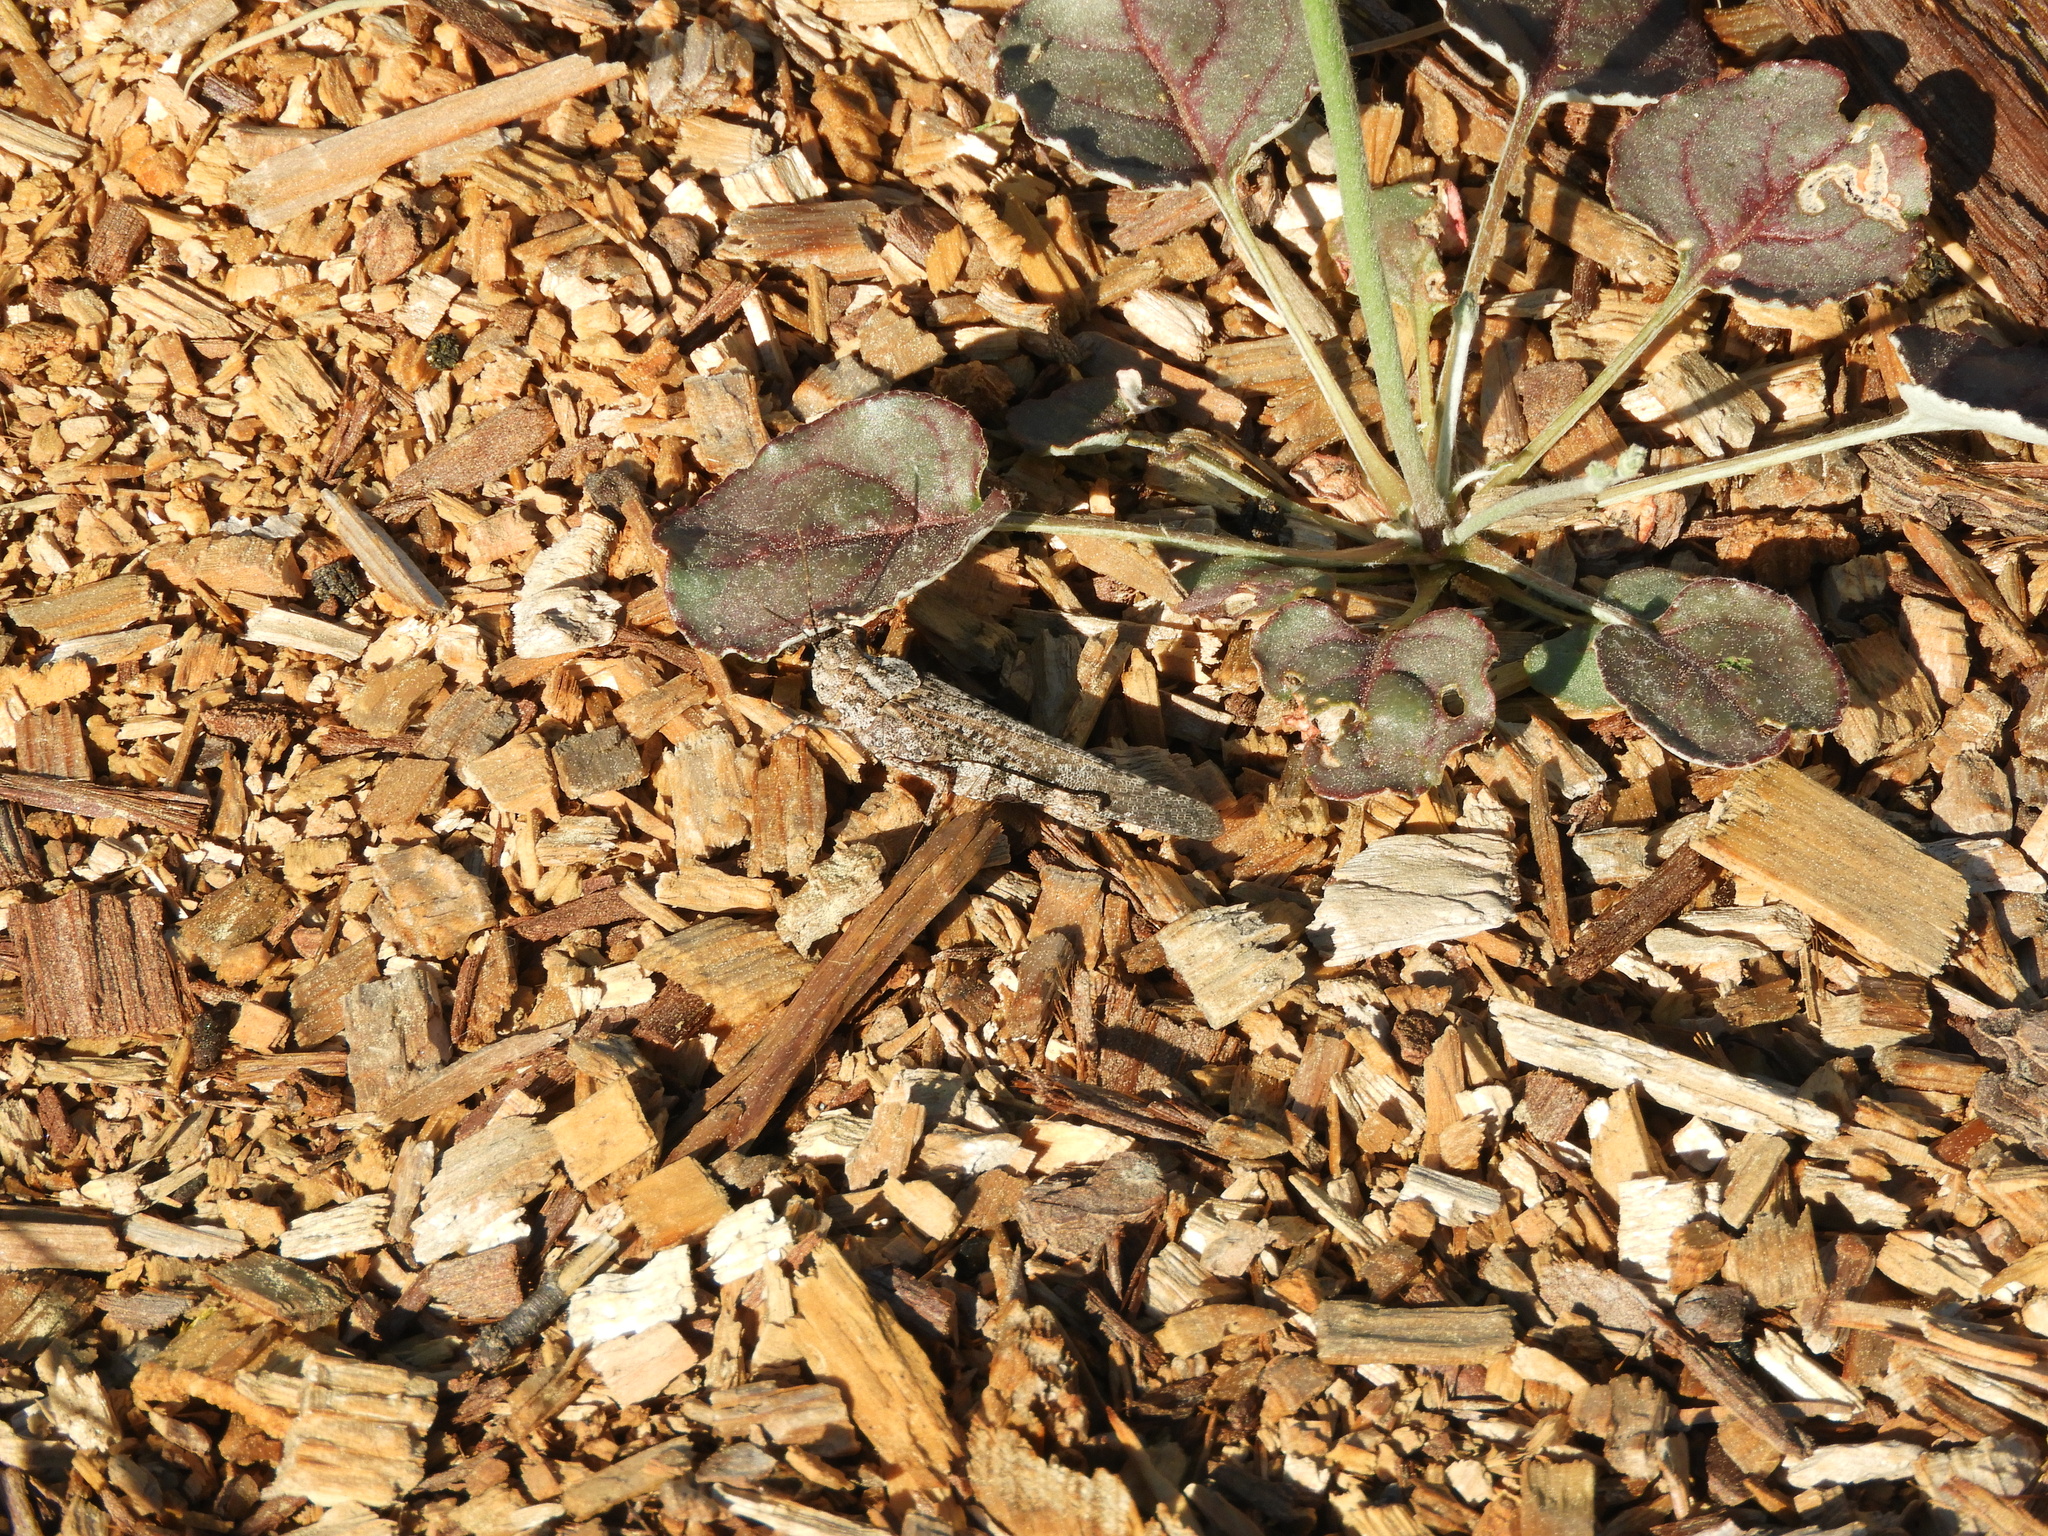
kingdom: Animalia
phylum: Arthropoda
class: Insecta
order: Orthoptera
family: Acrididae
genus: Trimerotropis
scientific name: Trimerotropis verruculata
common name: Crackling forest grasshopper
